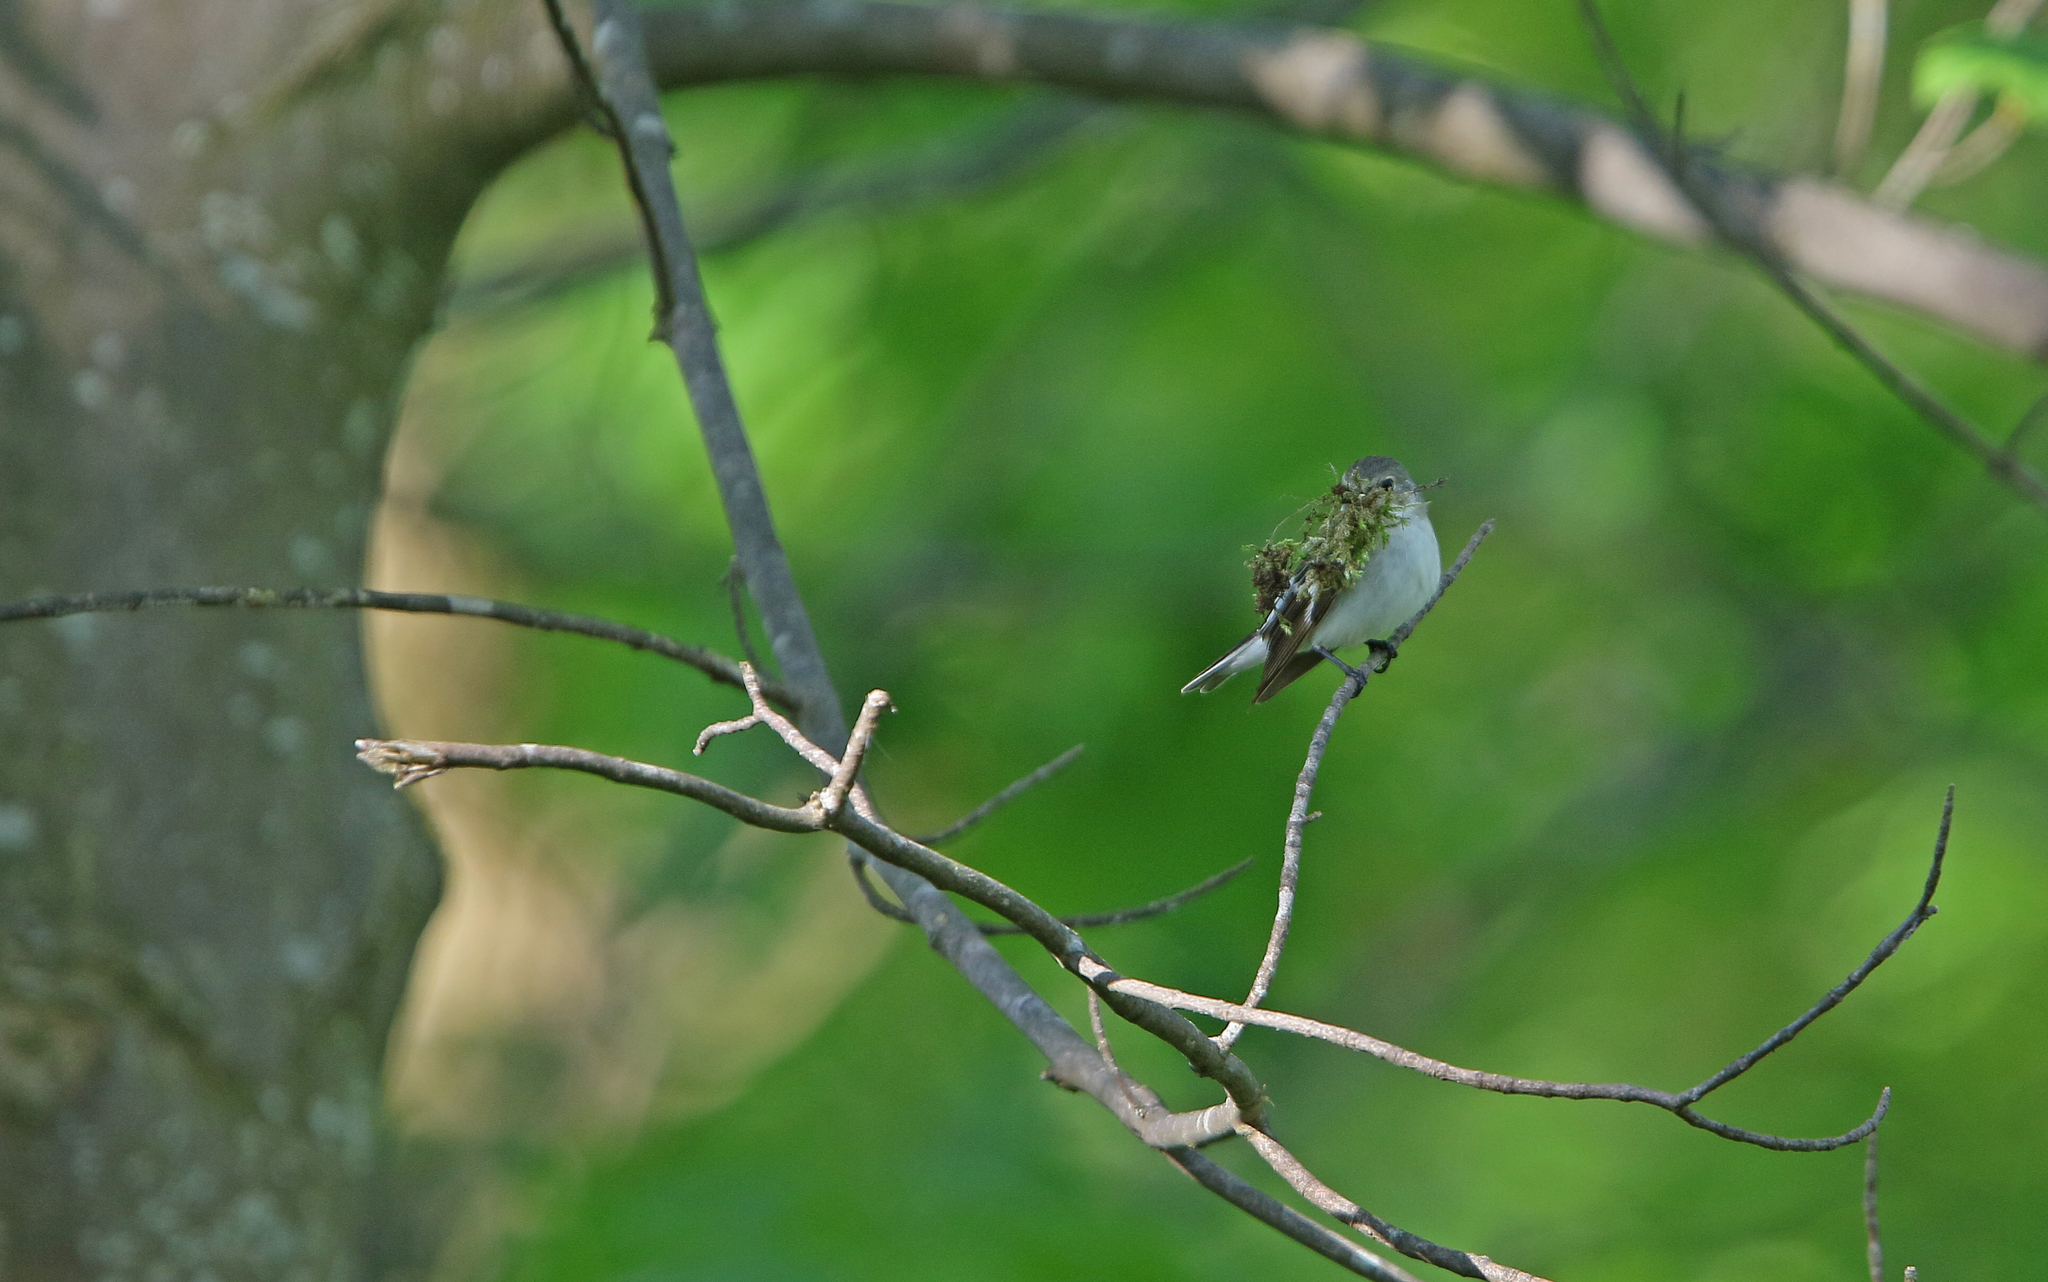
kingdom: Animalia
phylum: Chordata
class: Aves
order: Passeriformes
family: Muscicapidae
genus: Ficedula
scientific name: Ficedula albicollis
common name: Collared flycatcher
